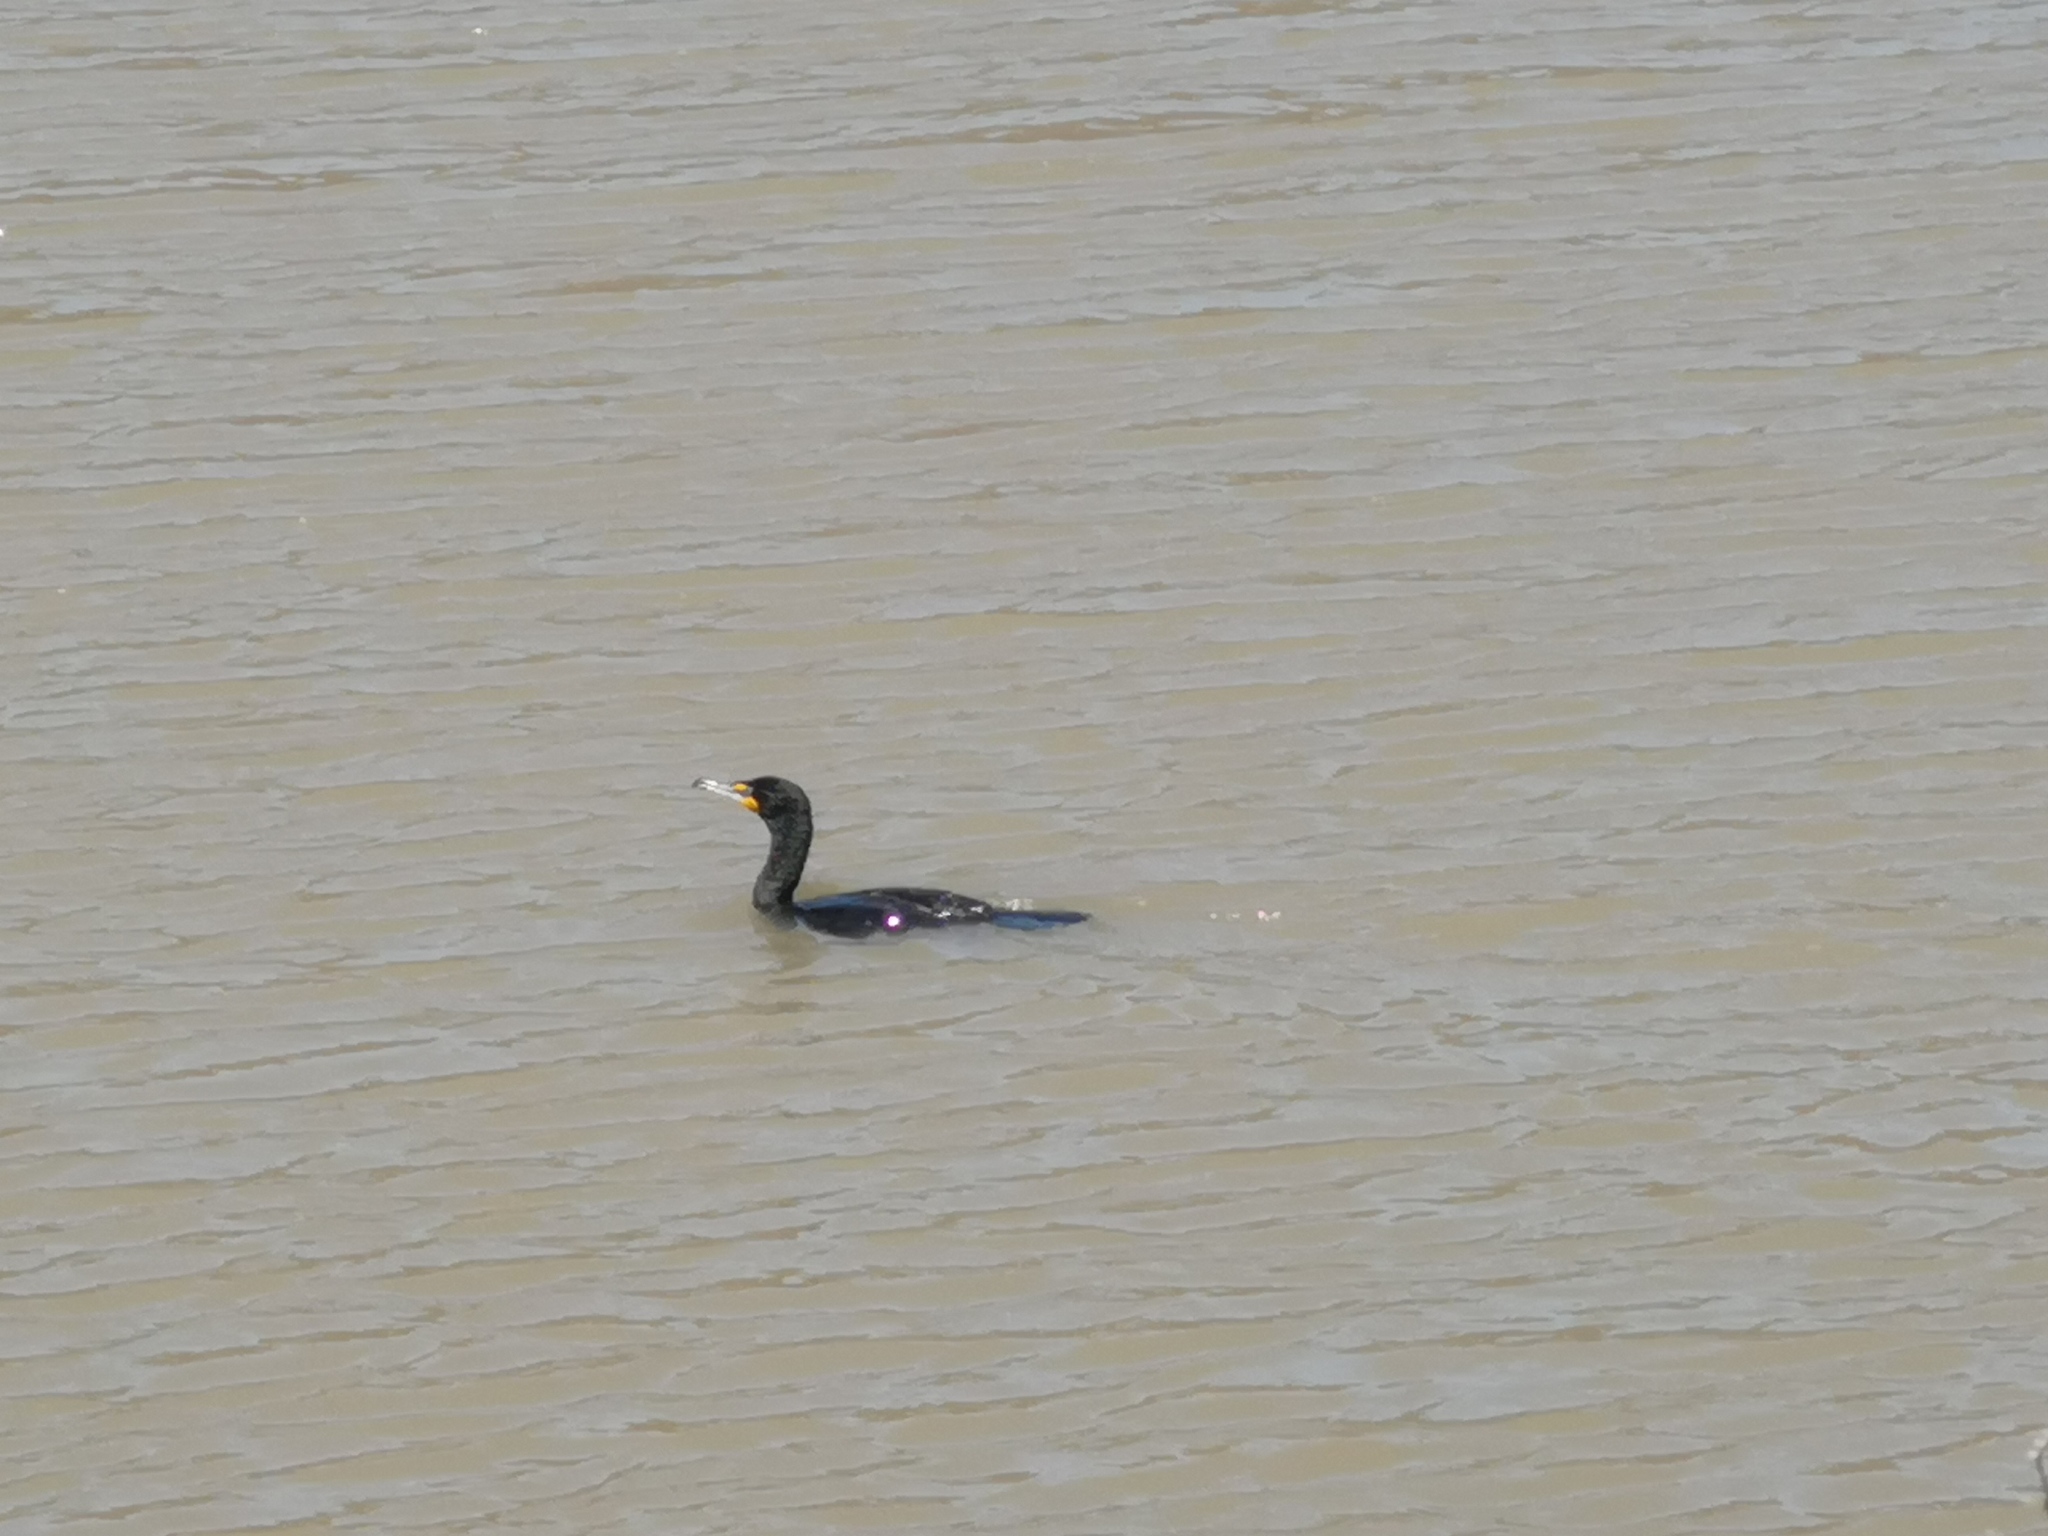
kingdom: Animalia
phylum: Chordata
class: Aves
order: Suliformes
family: Phalacrocoracidae
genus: Phalacrocorax
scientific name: Phalacrocorax auritus
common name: Double-crested cormorant
